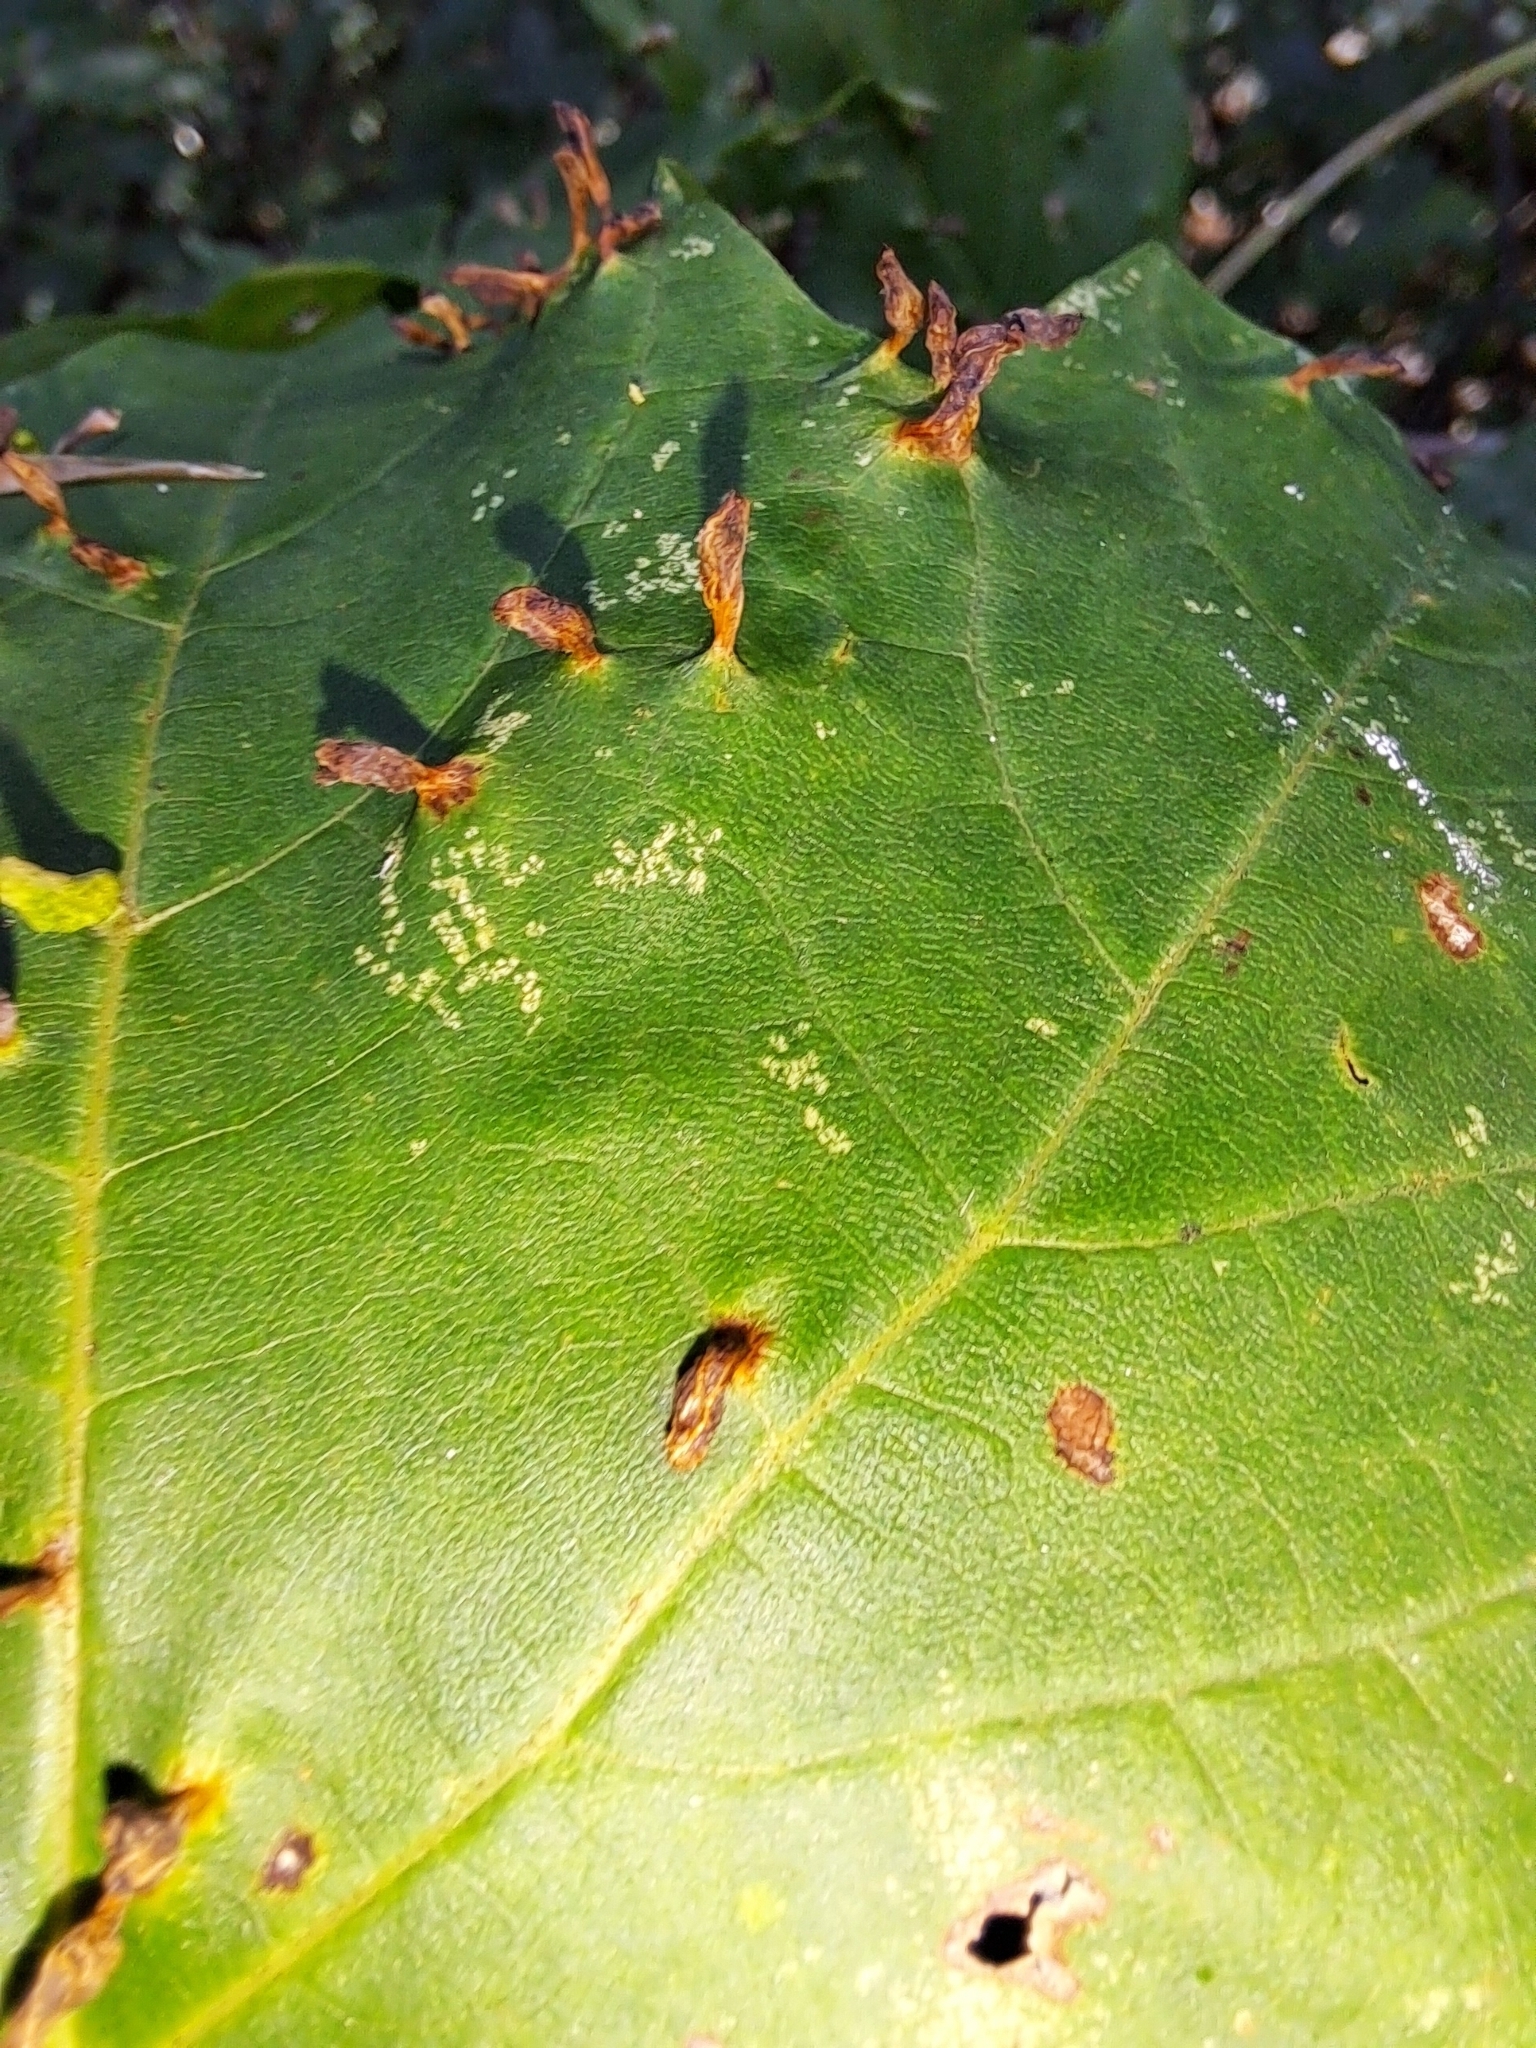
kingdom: Animalia
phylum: Arthropoda
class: Arachnida
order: Trombidiformes
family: Eriophyidae
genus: Vasates
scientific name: Vasates aceriscrumena
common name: Maple spindle gall mite
